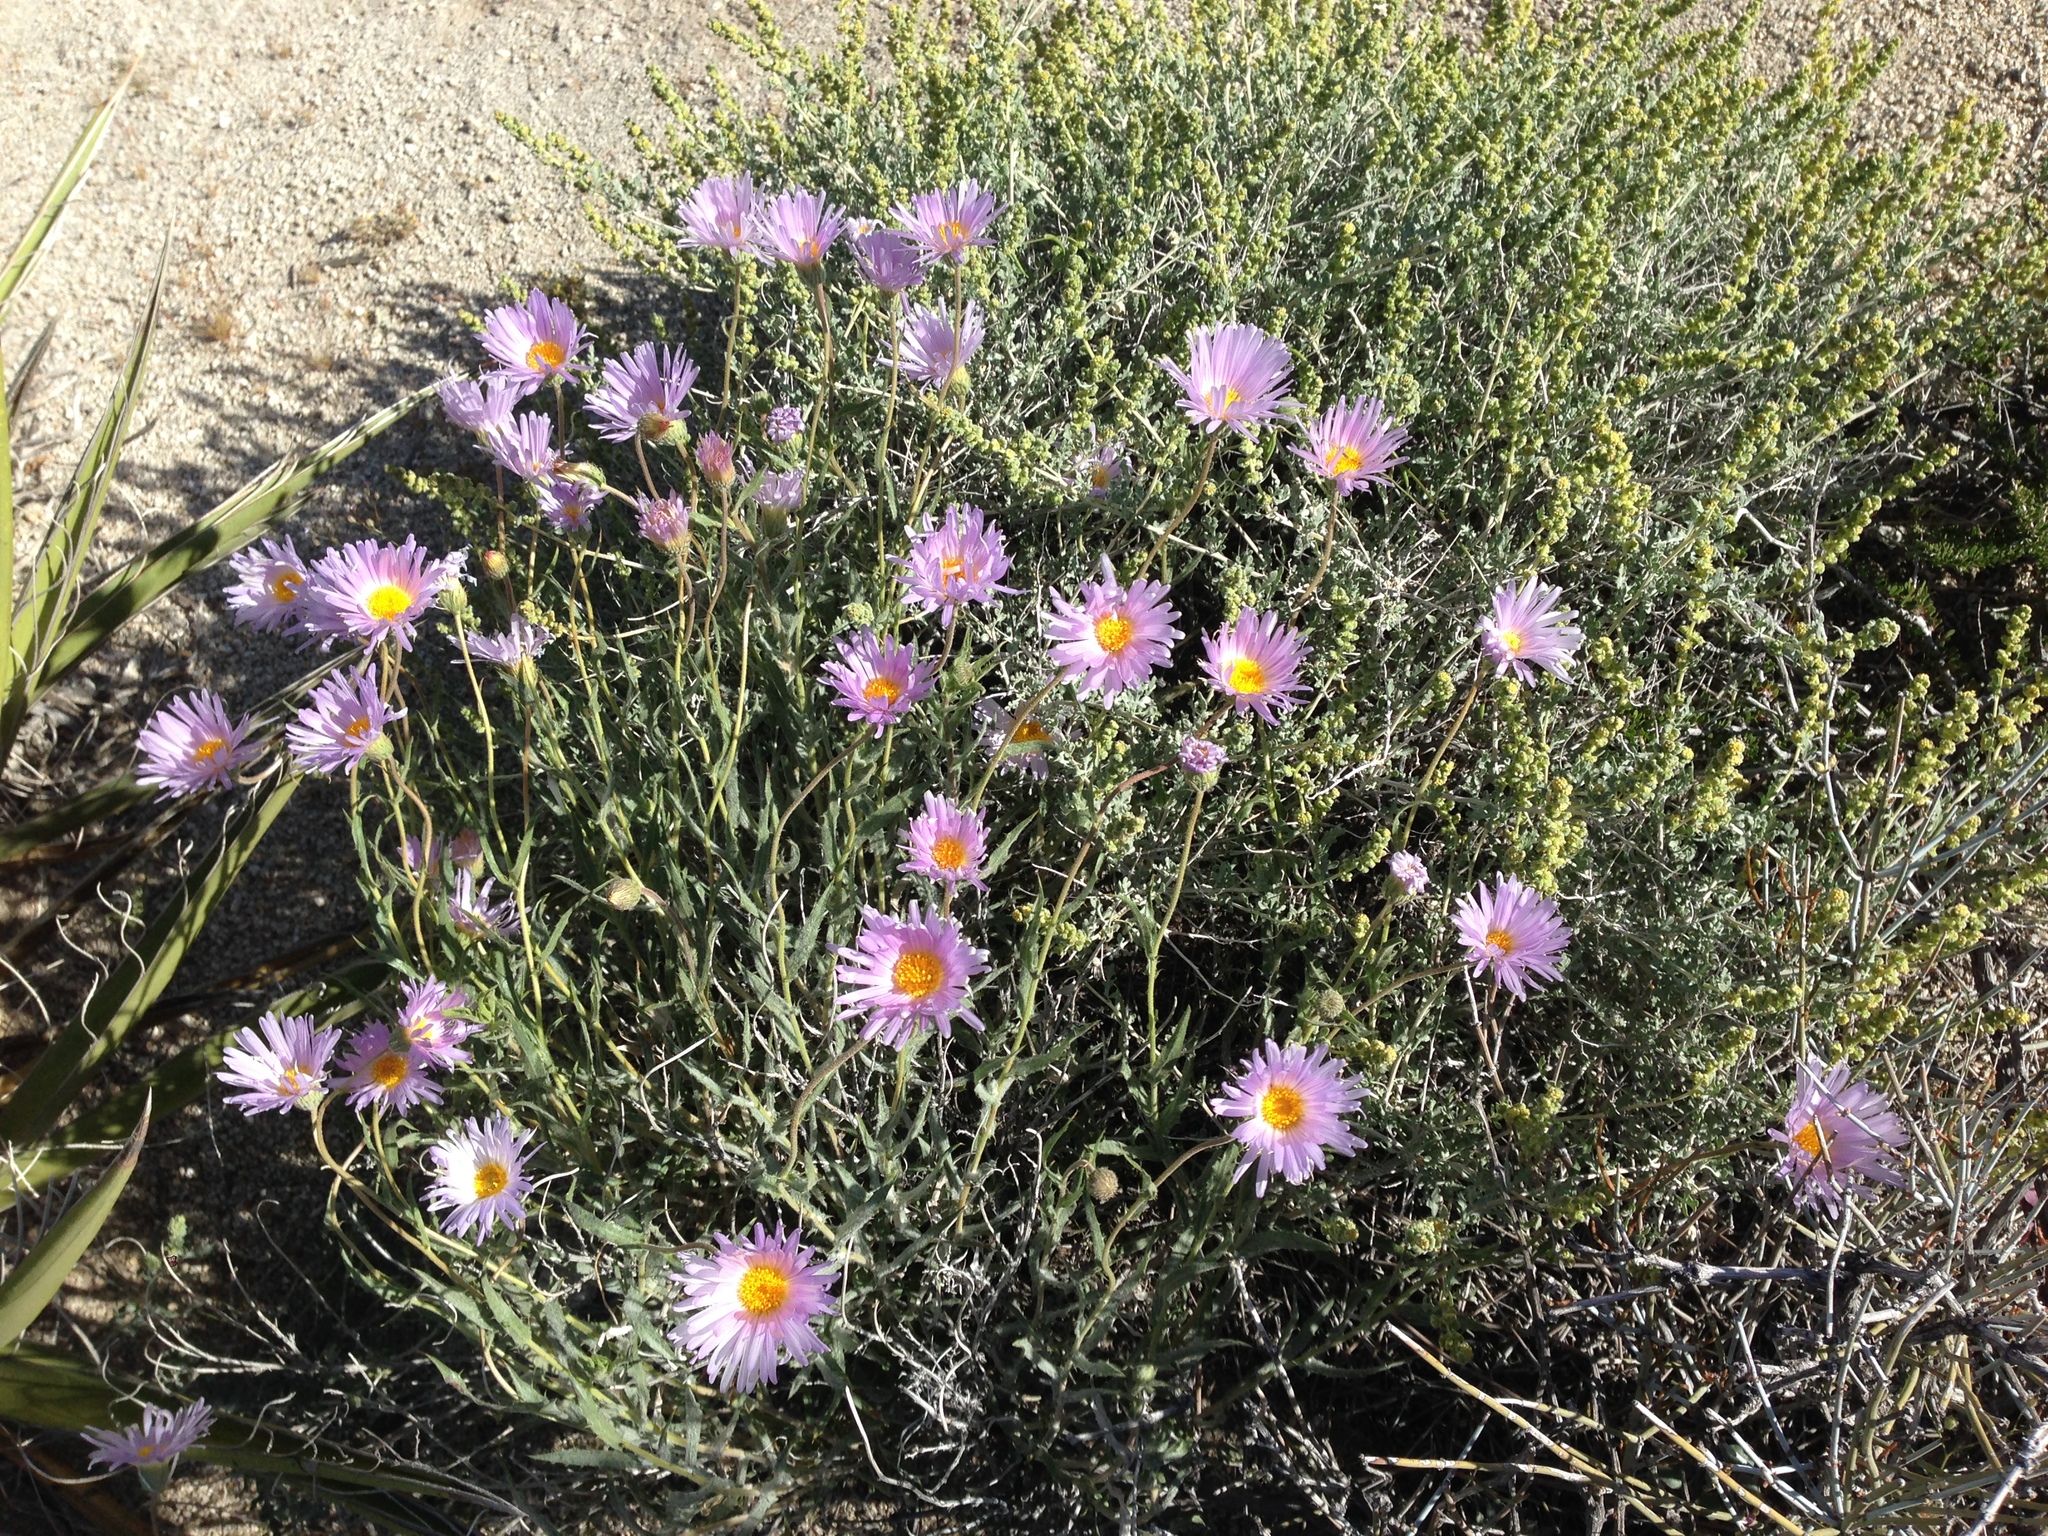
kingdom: Plantae
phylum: Tracheophyta
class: Magnoliopsida
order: Asterales
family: Asteraceae
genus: Xylorhiza
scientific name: Xylorhiza tortifolia
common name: Hurt-leaf woody-aster
